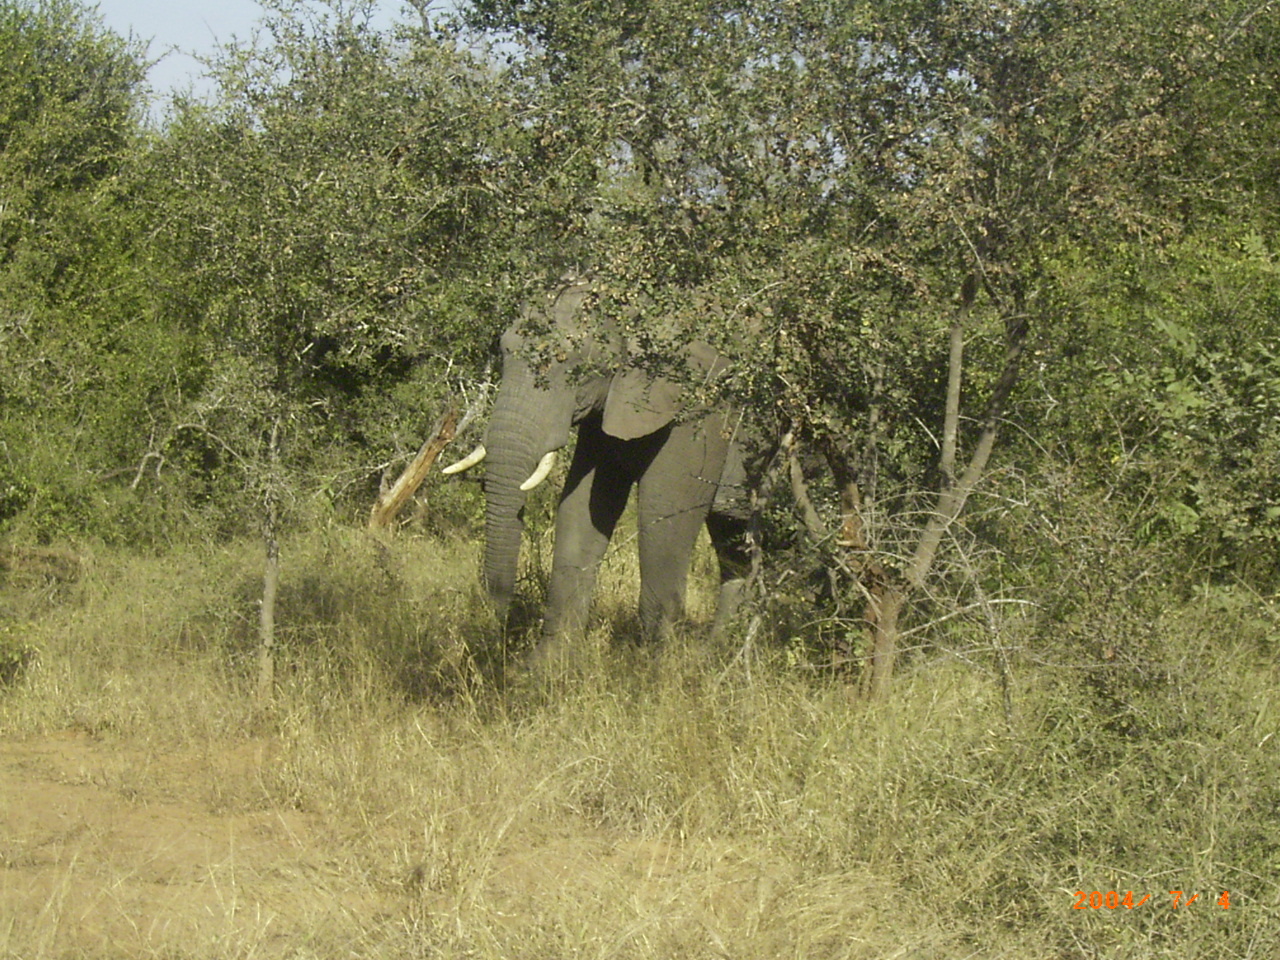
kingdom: Animalia
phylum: Chordata
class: Mammalia
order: Proboscidea
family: Elephantidae
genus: Loxodonta
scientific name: Loxodonta africana
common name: African elephant
